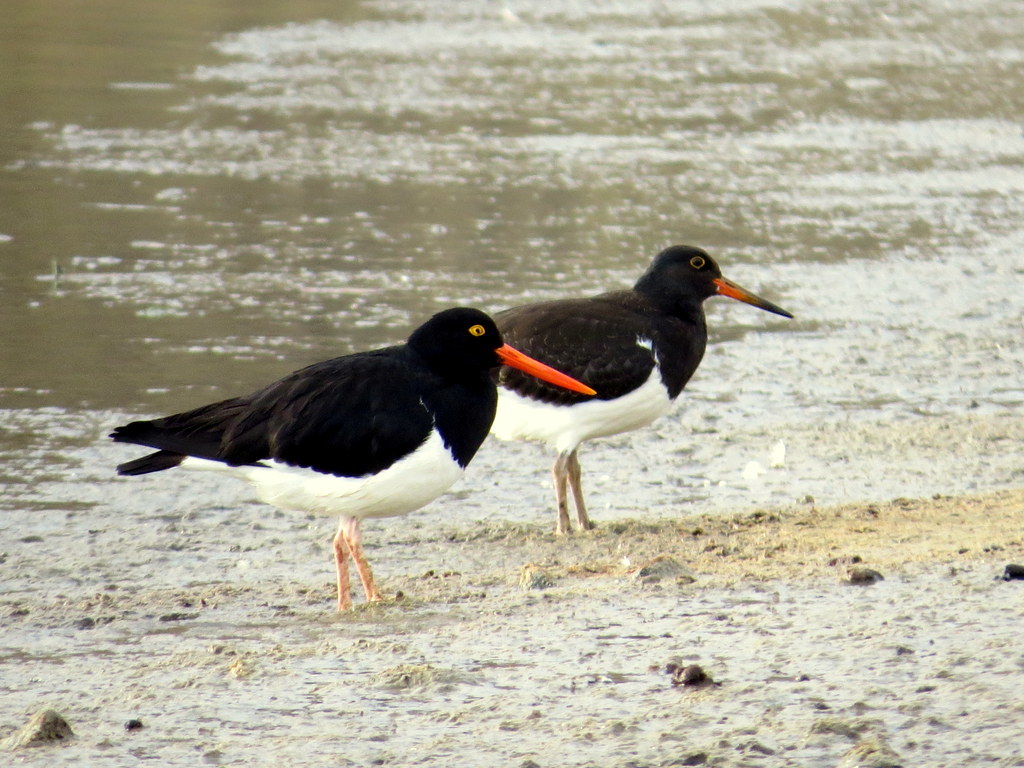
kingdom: Animalia
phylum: Chordata
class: Aves
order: Charadriiformes
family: Haematopodidae
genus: Haematopus
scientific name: Haematopus leucopodus
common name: Magellanic oystercatcher
